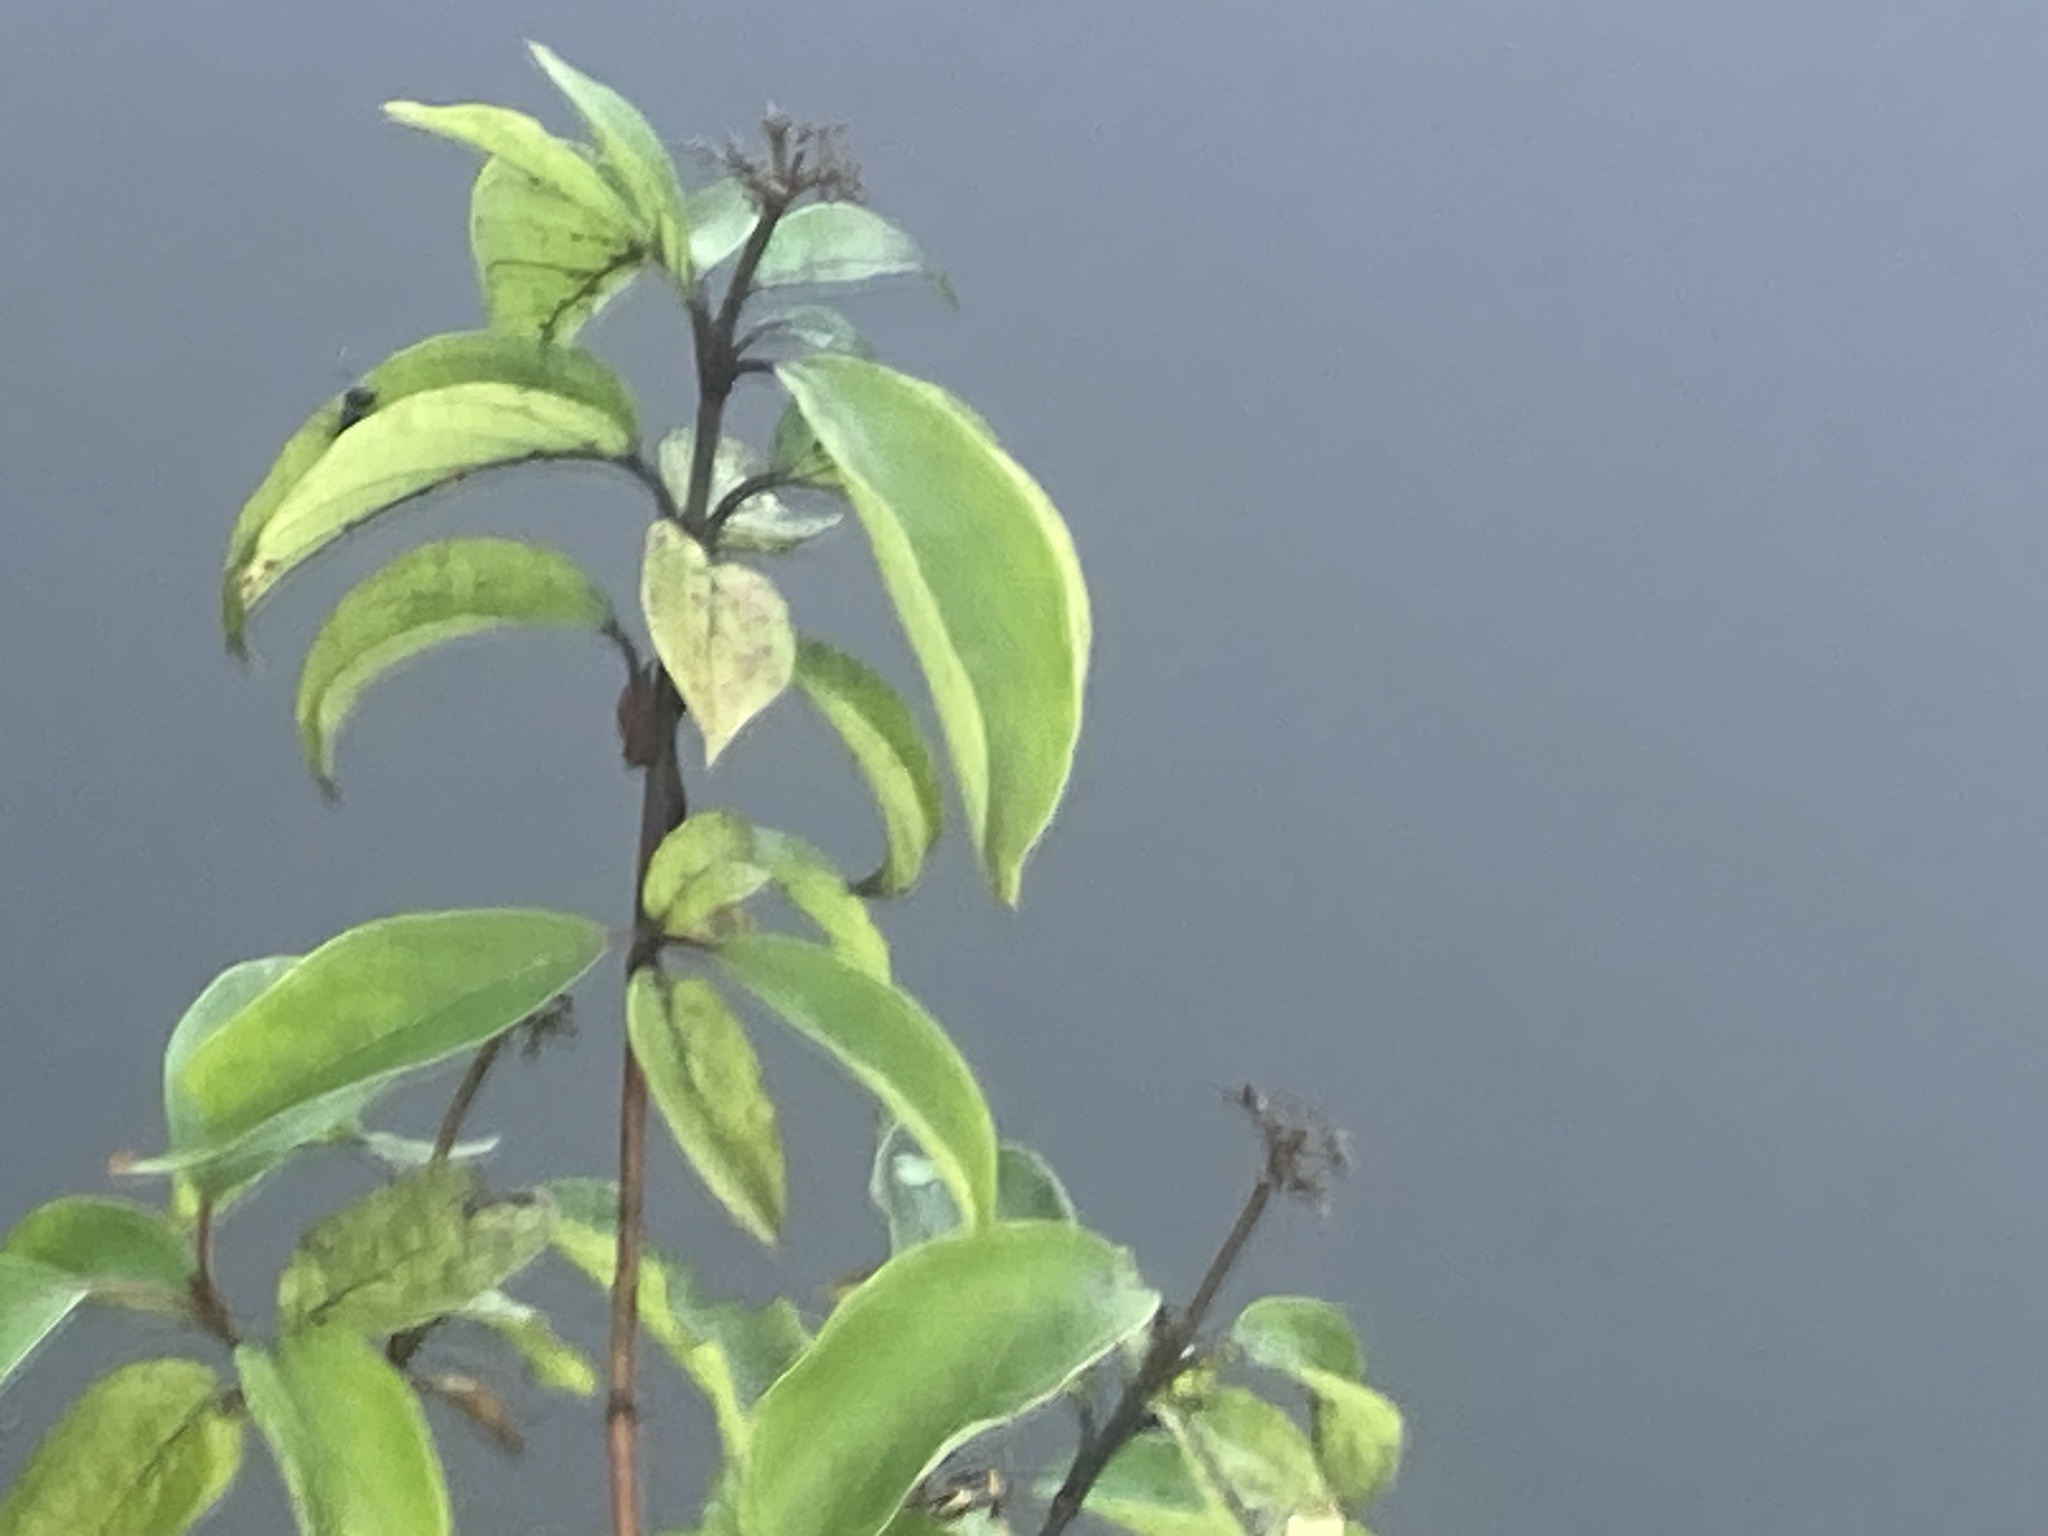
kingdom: Plantae
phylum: Tracheophyta
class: Magnoliopsida
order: Cornales
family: Cornaceae
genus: Cornus
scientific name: Cornus foemina
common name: Swamp dogwood
